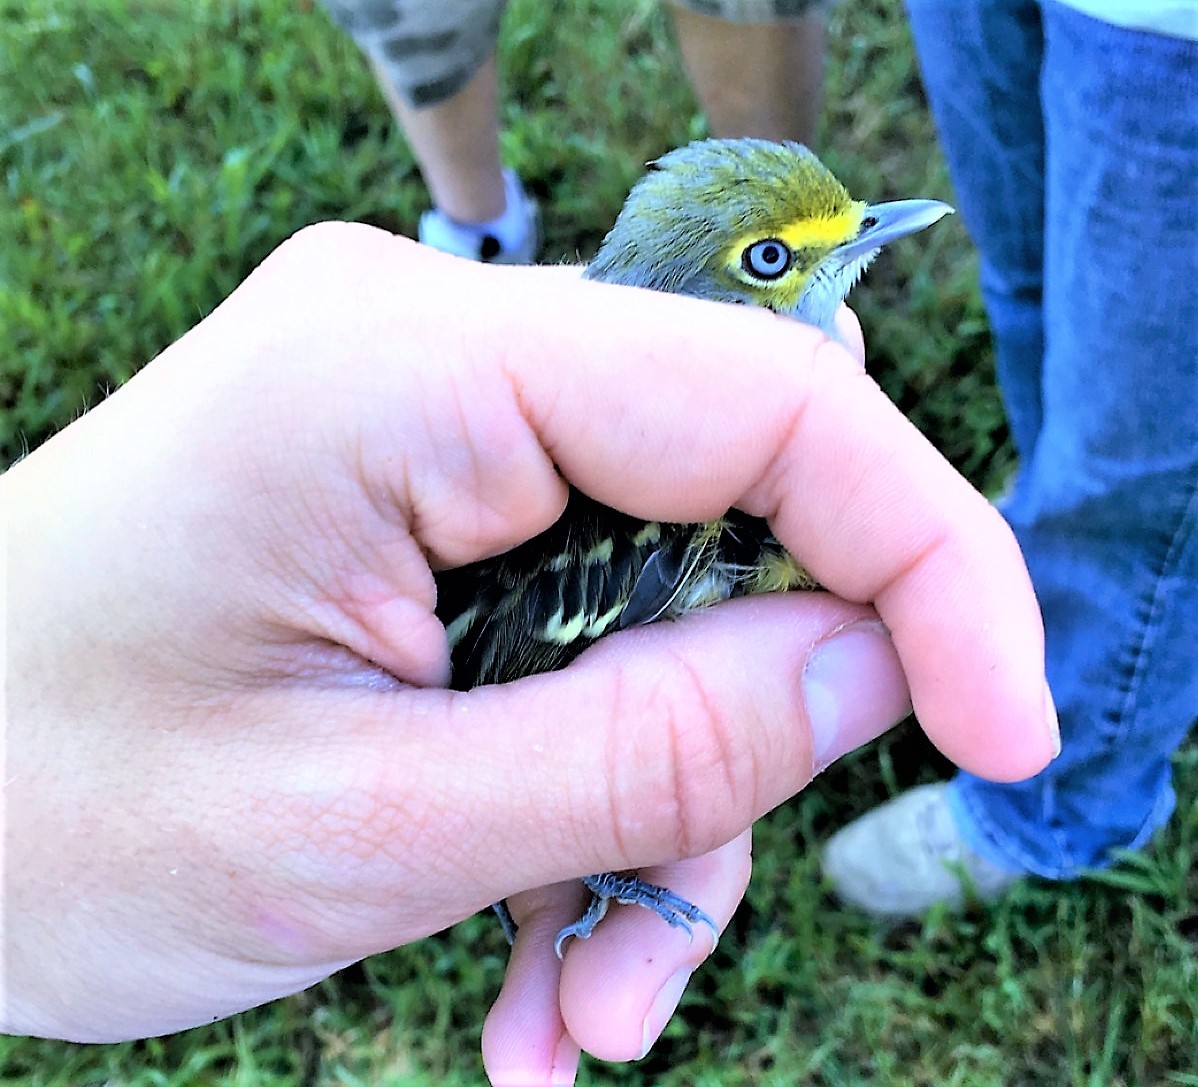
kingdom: Animalia
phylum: Chordata
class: Aves
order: Passeriformes
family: Vireonidae
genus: Vireo
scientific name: Vireo griseus
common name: White-eyed vireo
